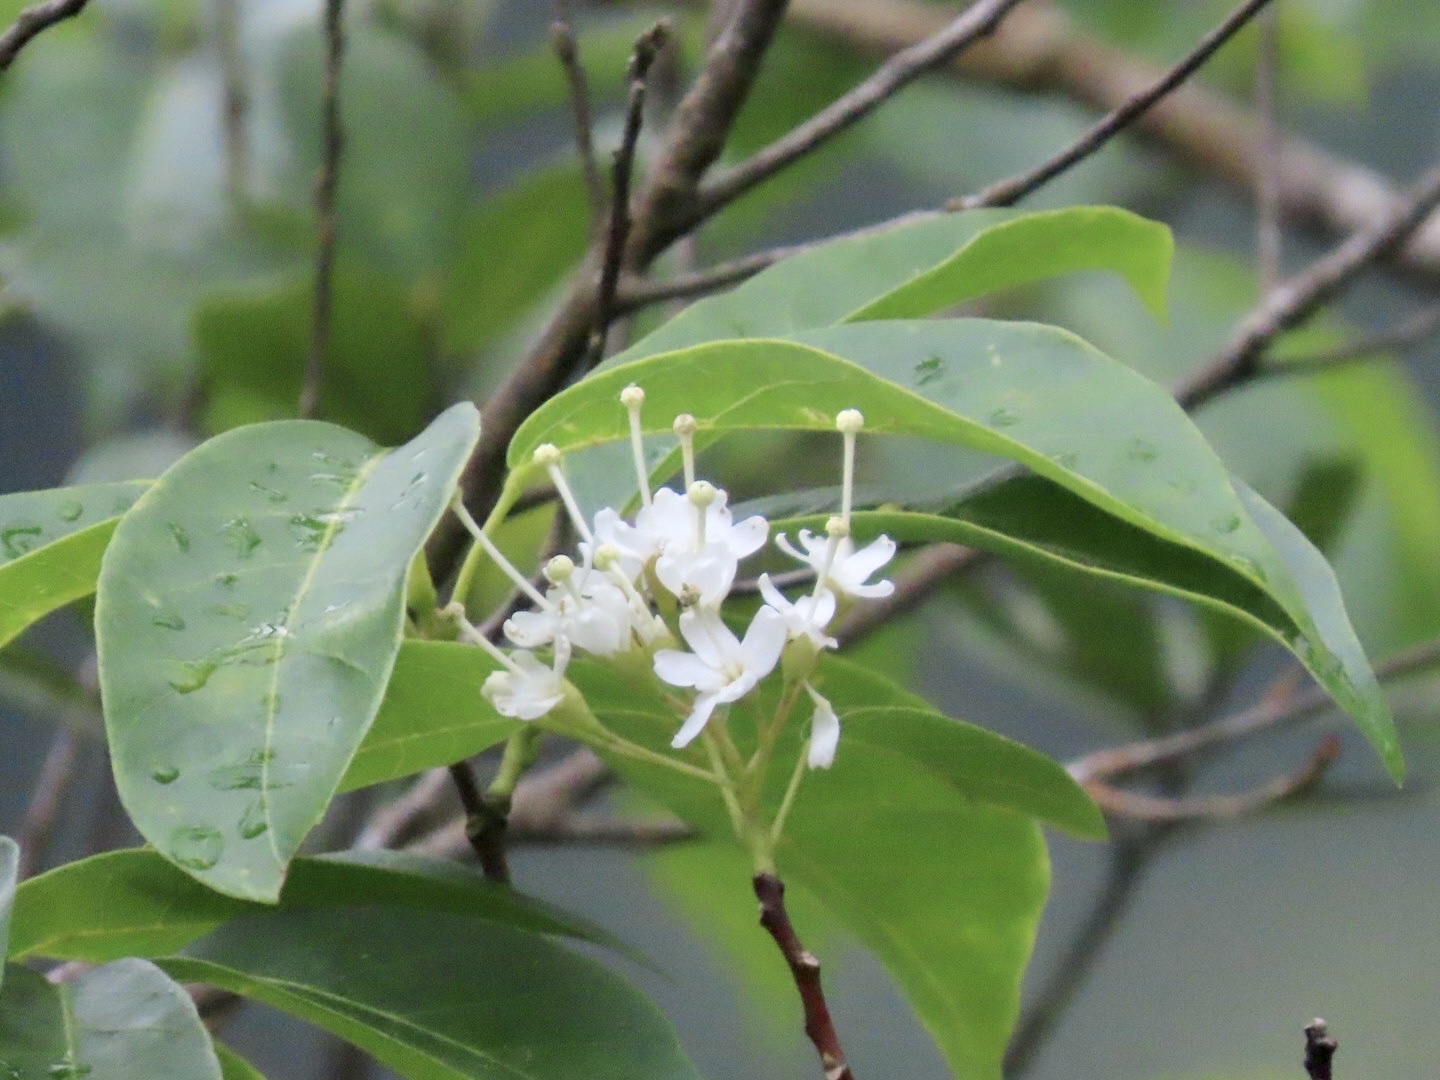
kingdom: Plantae
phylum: Tracheophyta
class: Magnoliopsida
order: Malvales
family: Malvaceae
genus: Reevesia
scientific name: Reevesia thyrsoidea
